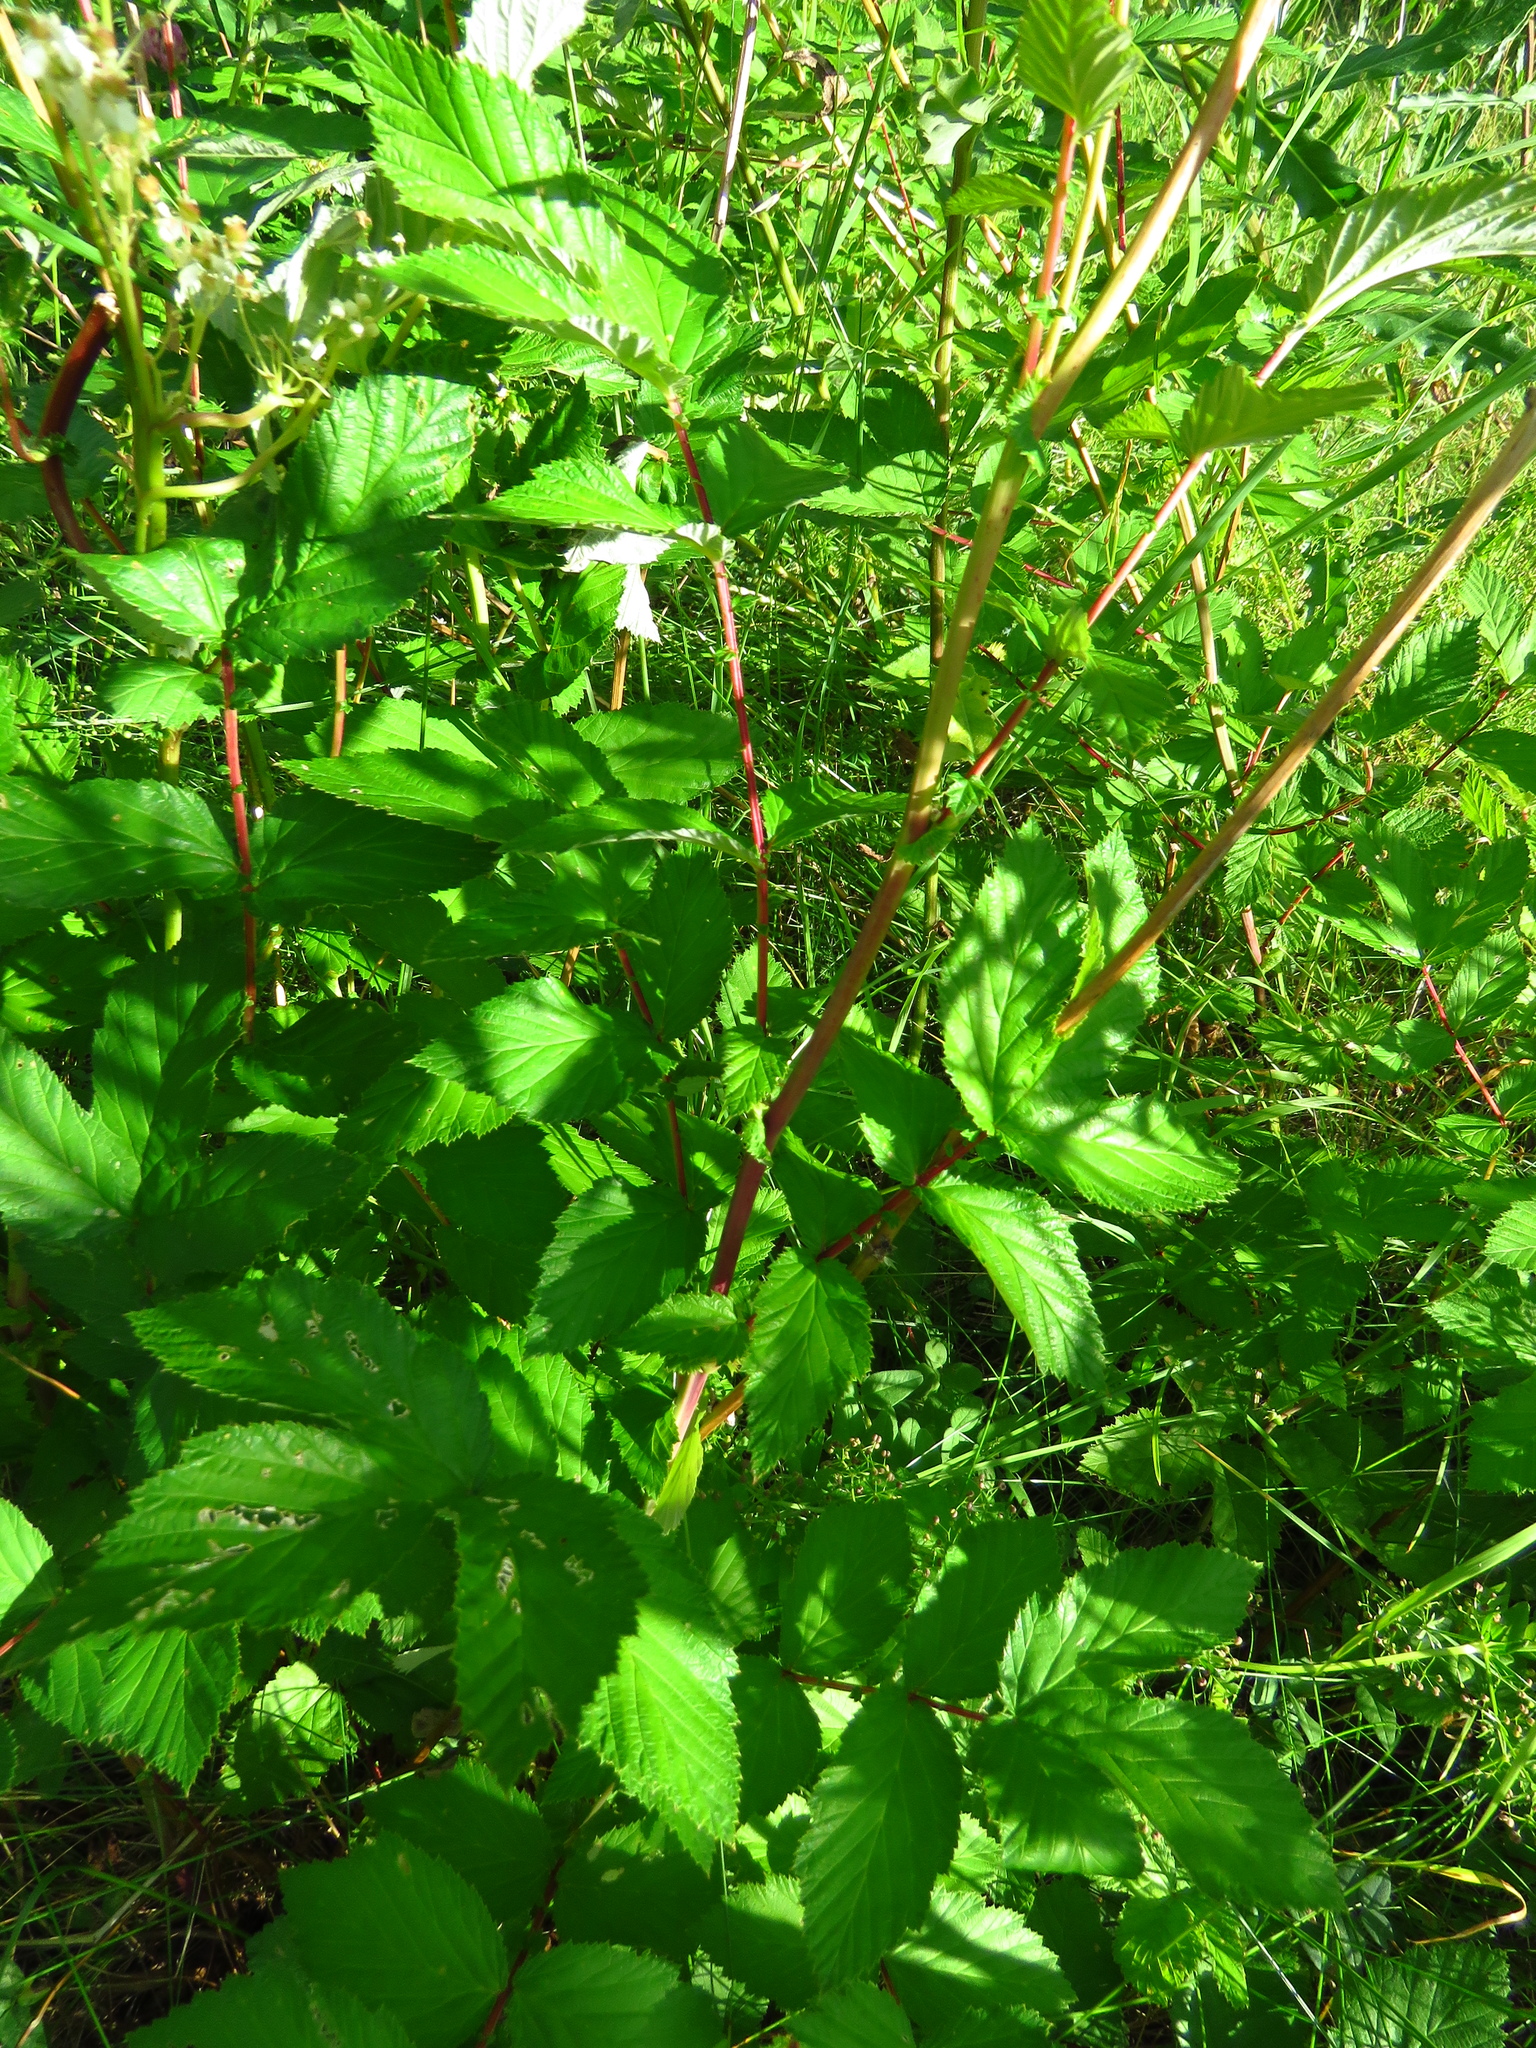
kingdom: Plantae
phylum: Tracheophyta
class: Magnoliopsida
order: Rosales
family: Rosaceae
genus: Filipendula
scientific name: Filipendula ulmaria
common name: Meadowsweet
